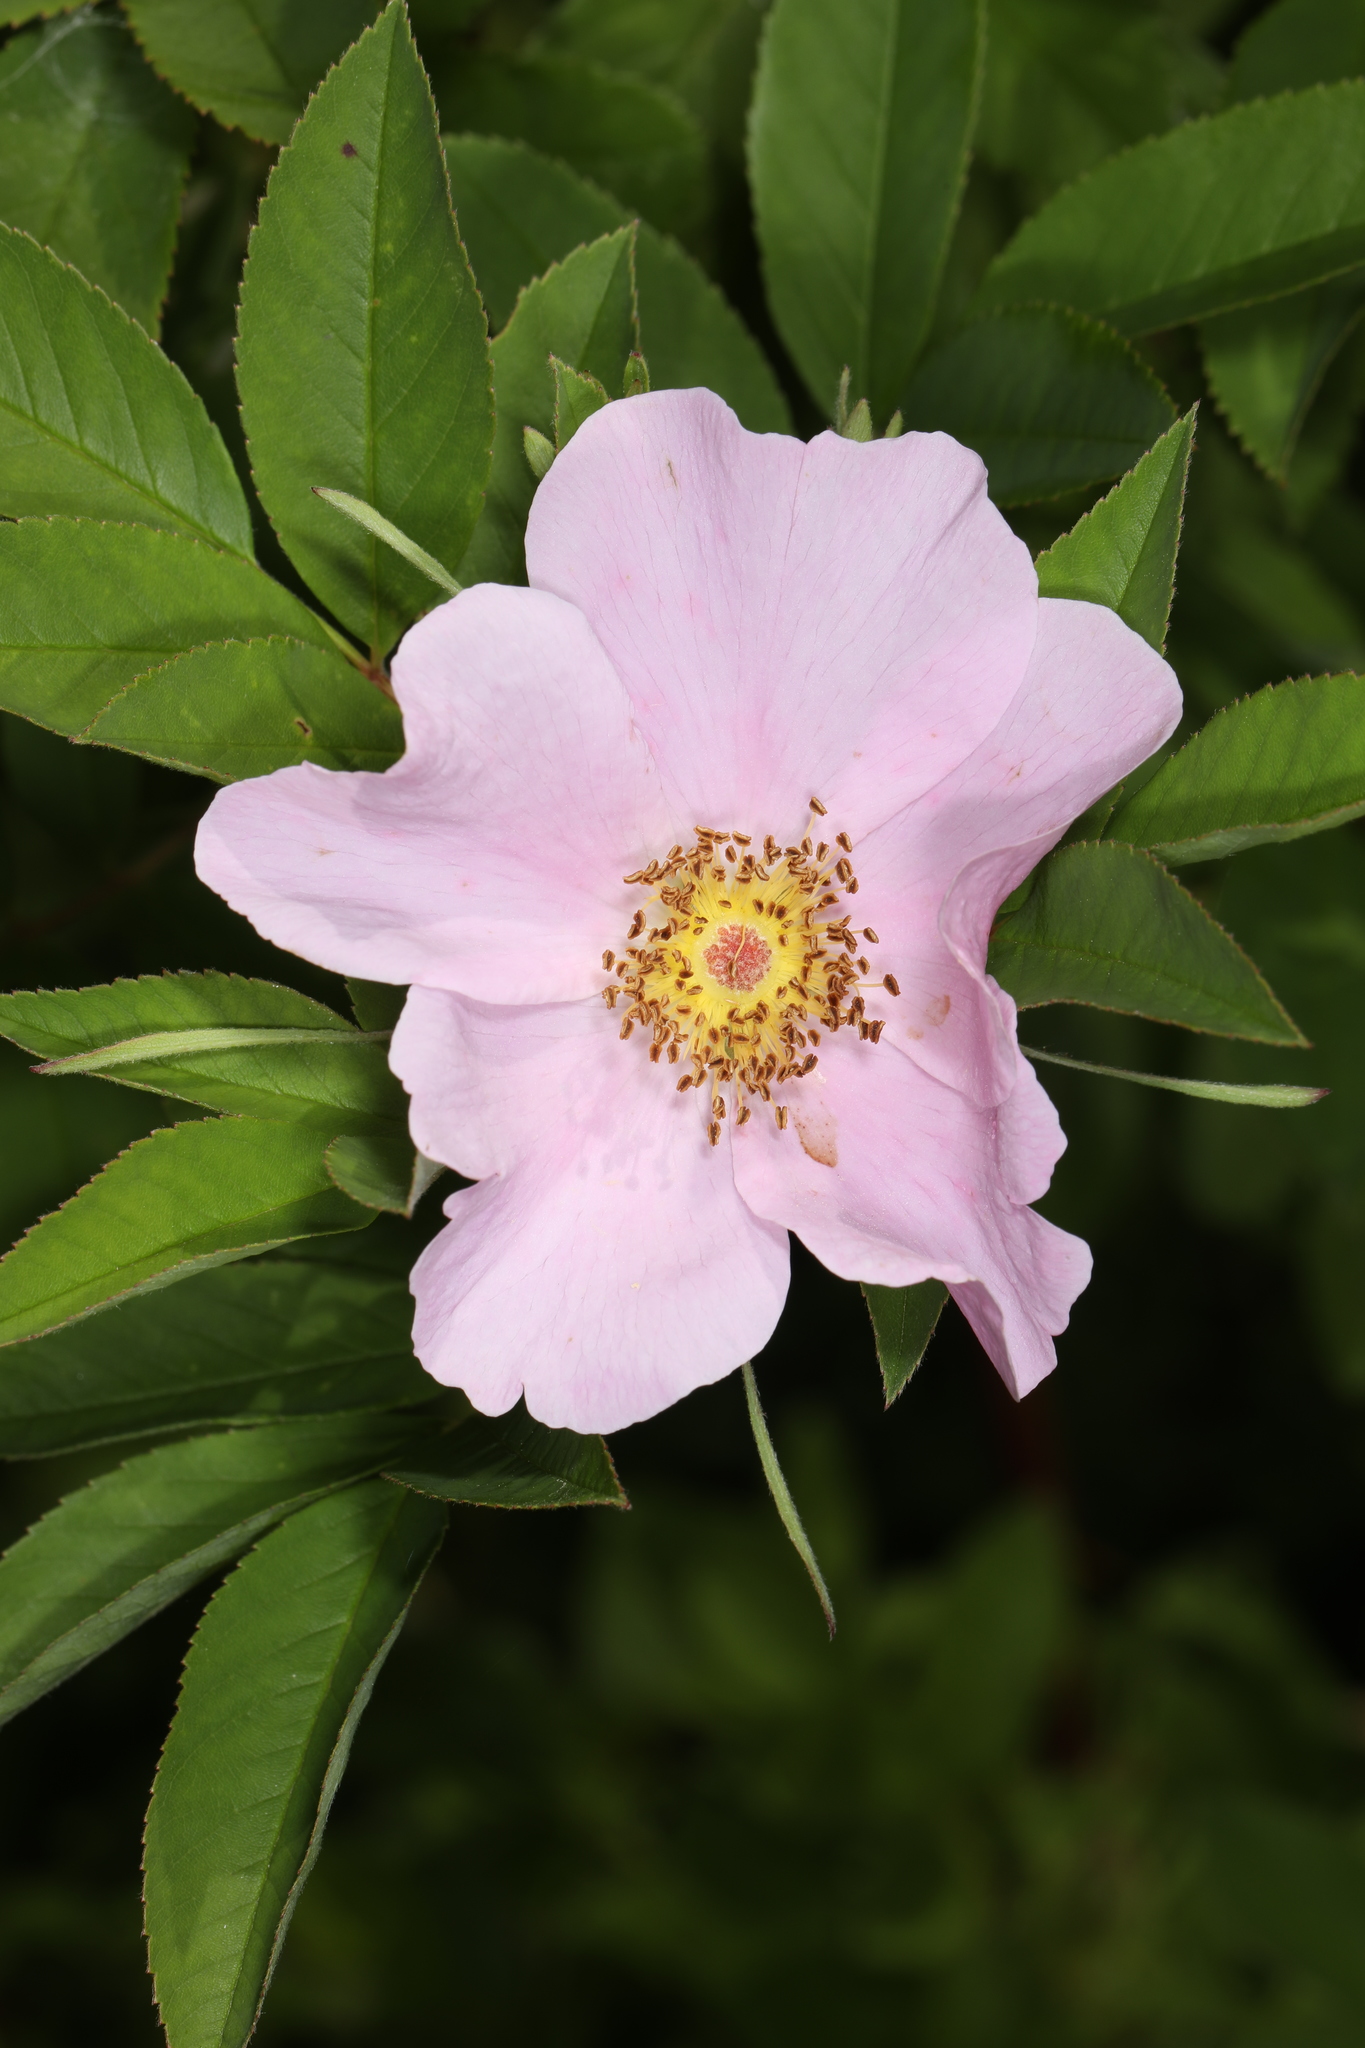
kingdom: Plantae
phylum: Tracheophyta
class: Magnoliopsida
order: Rosales
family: Rosaceae
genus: Rosa
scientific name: Rosa palustris
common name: Swamp rose
